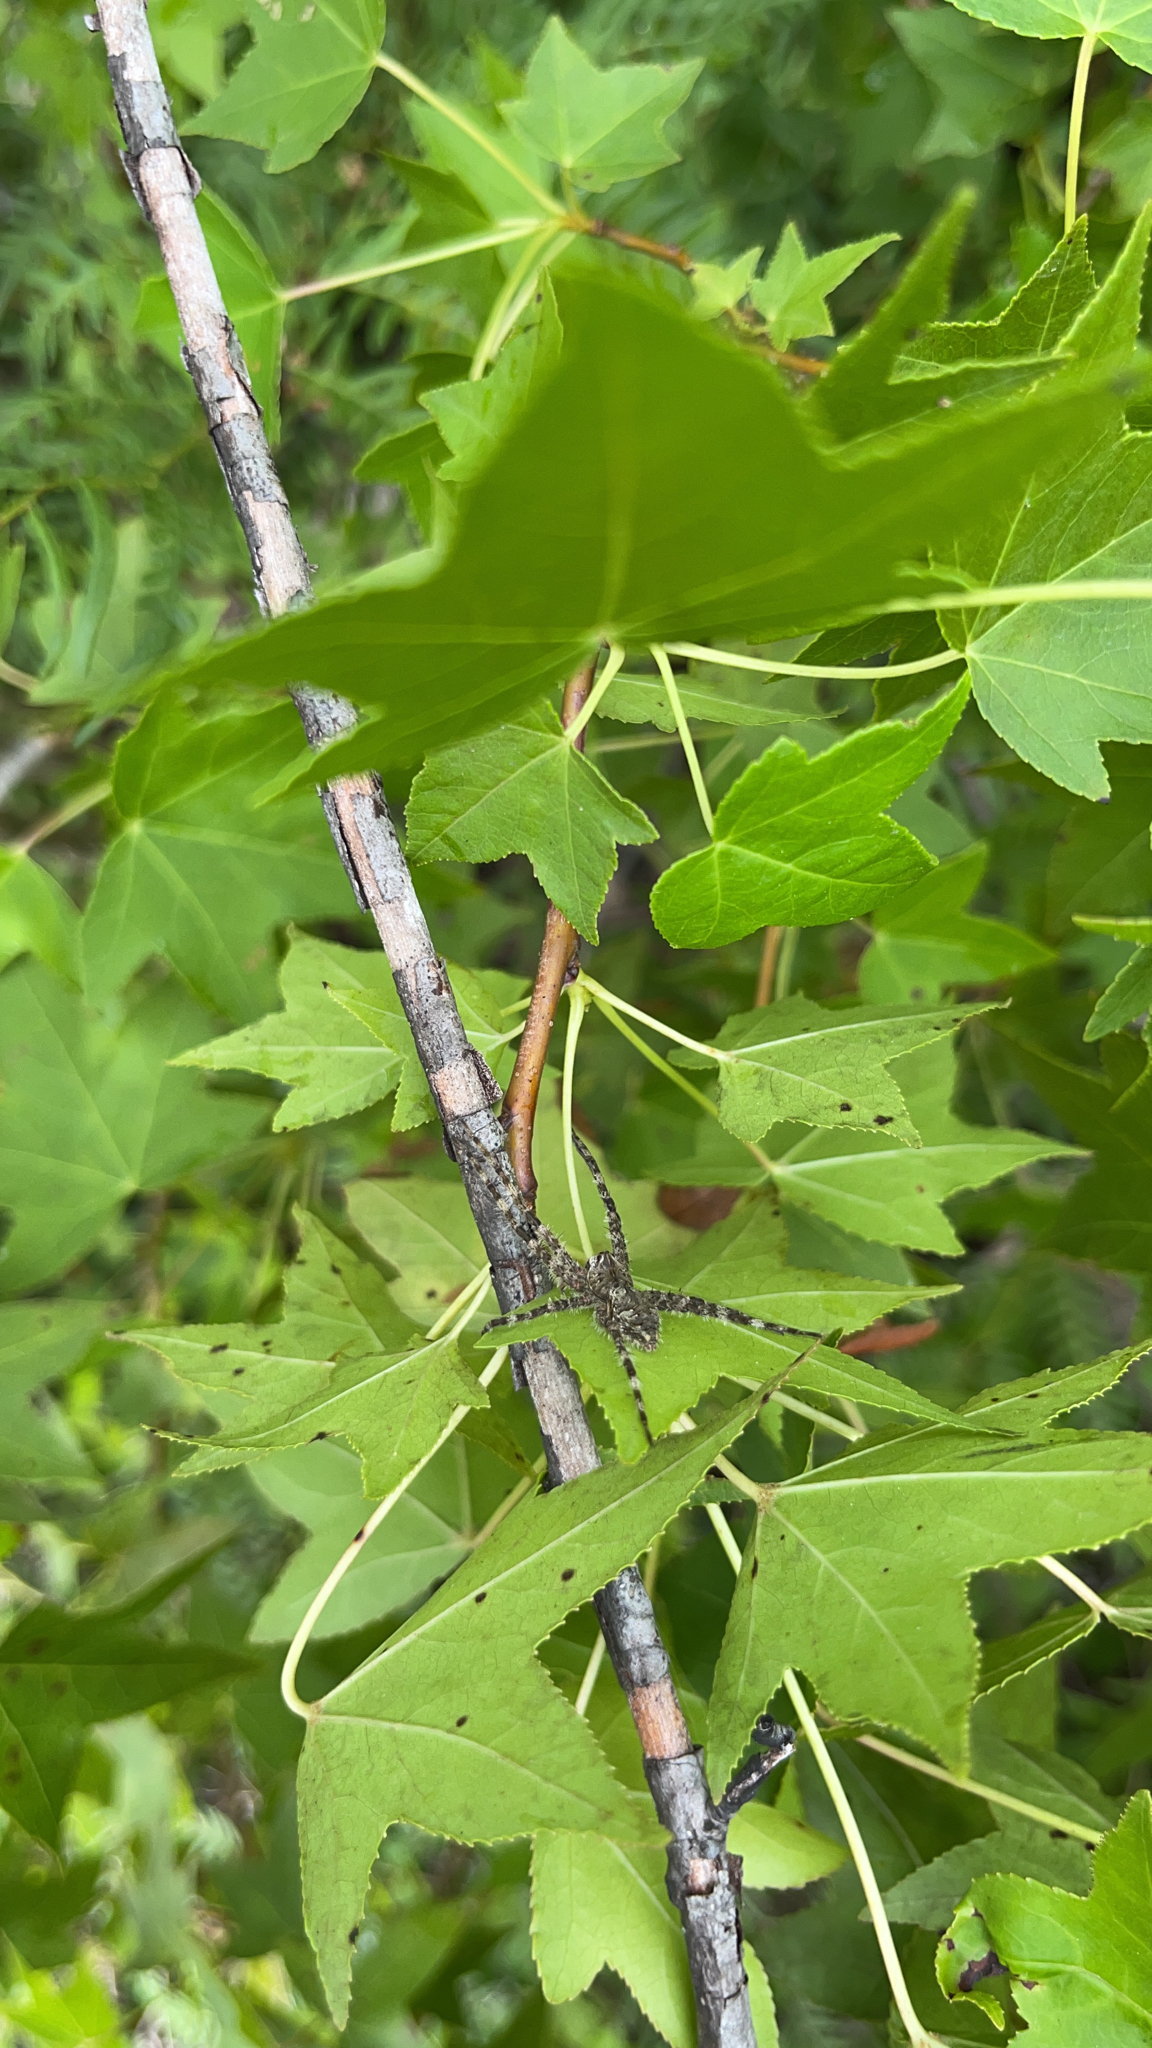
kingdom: Animalia
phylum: Arthropoda
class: Arachnida
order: Araneae
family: Pisauridae
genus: Dolomedes
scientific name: Dolomedes albineus
